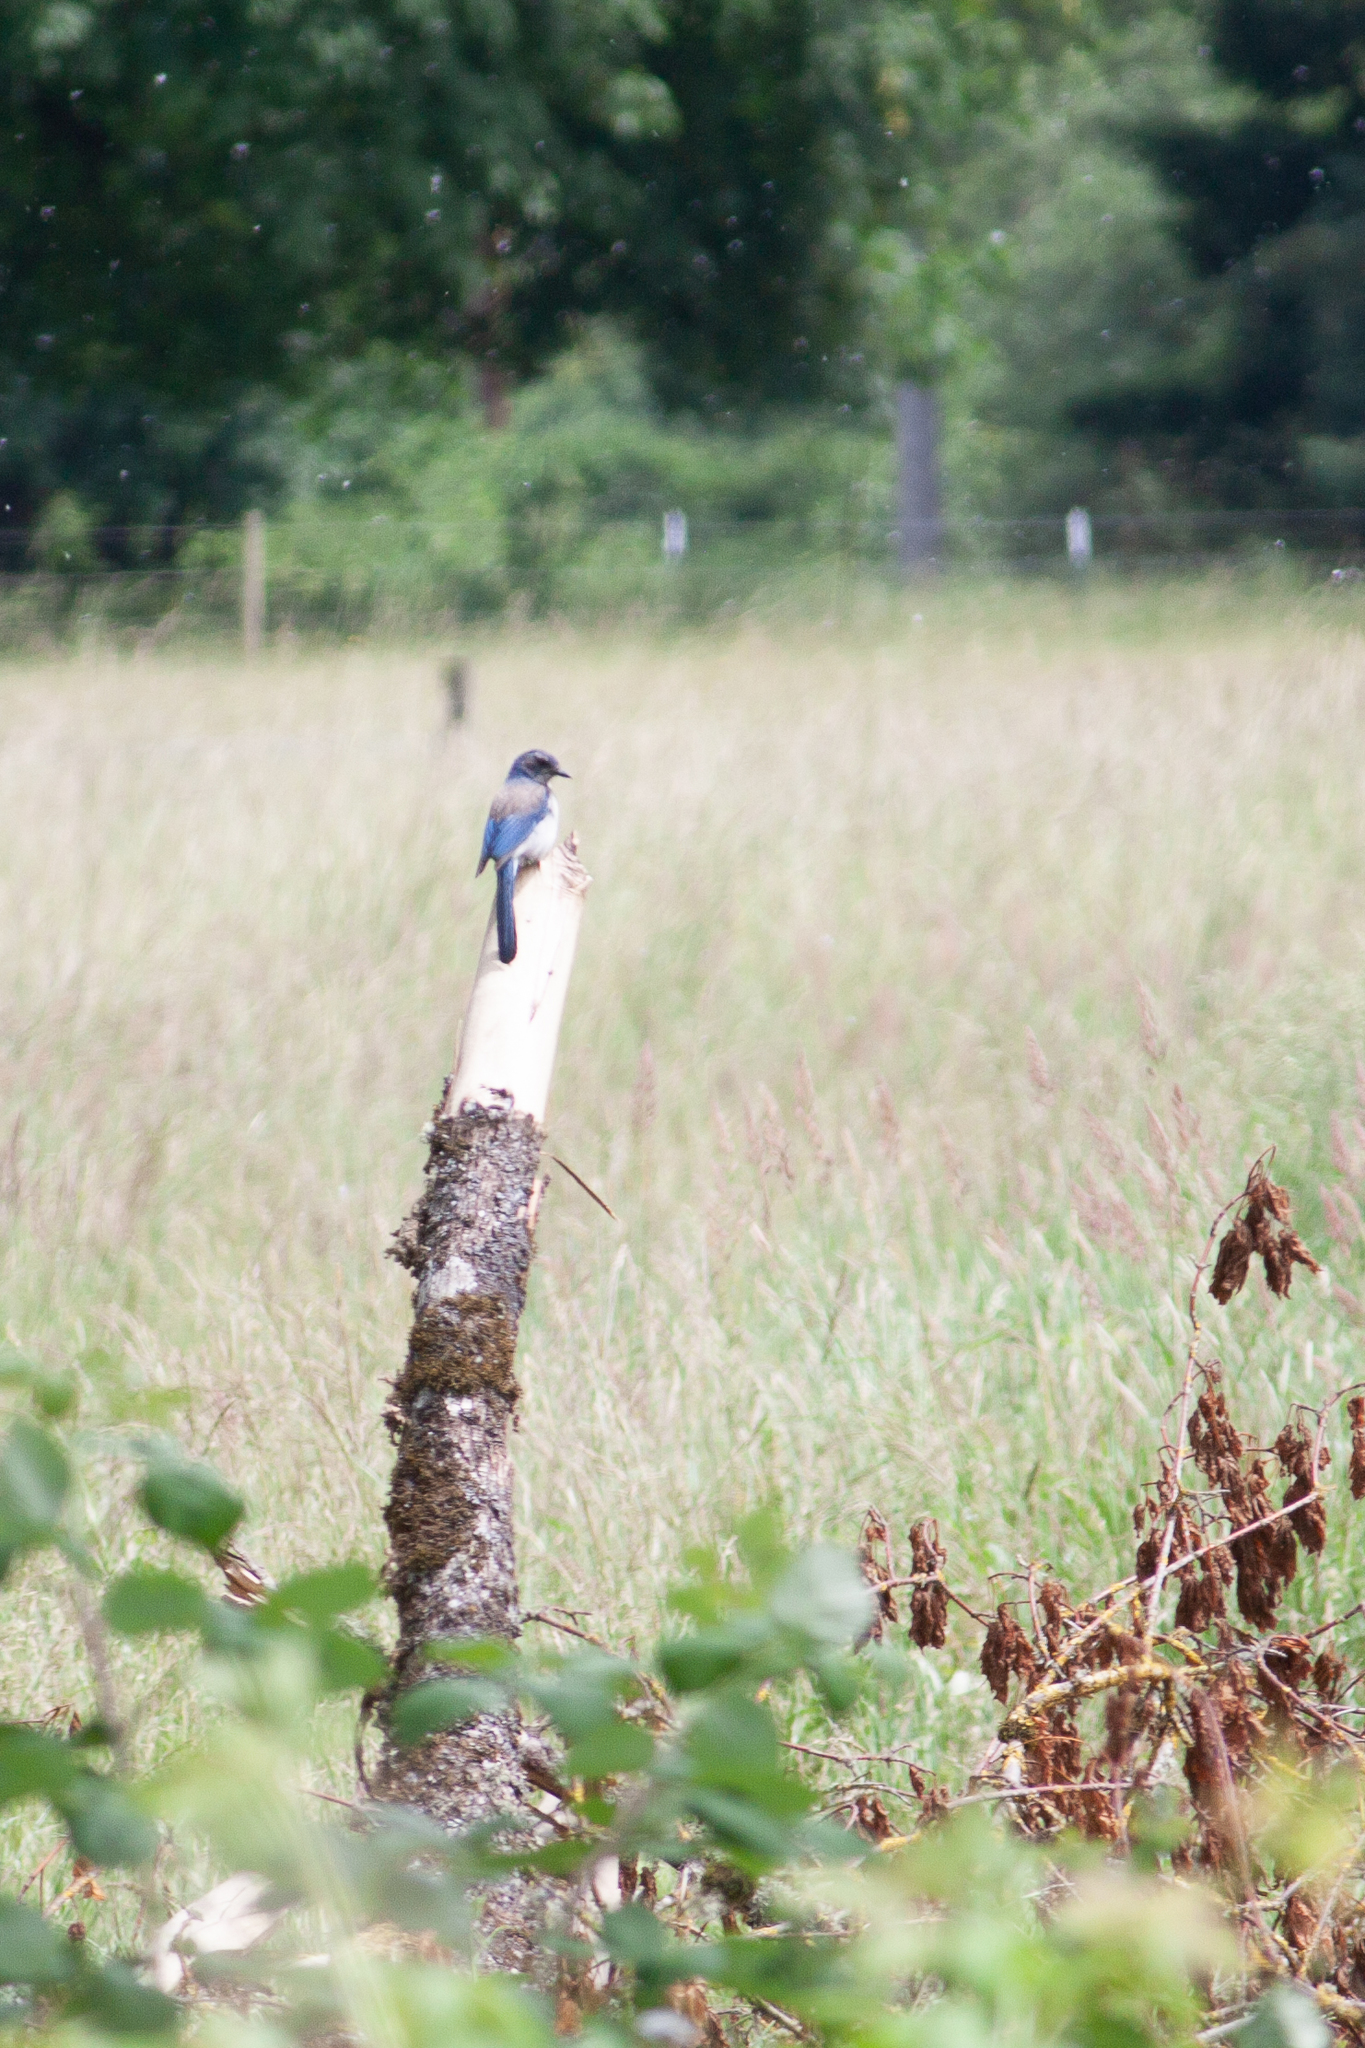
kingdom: Animalia
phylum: Chordata
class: Aves
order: Passeriformes
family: Corvidae
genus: Aphelocoma
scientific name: Aphelocoma californica
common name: California scrub-jay
